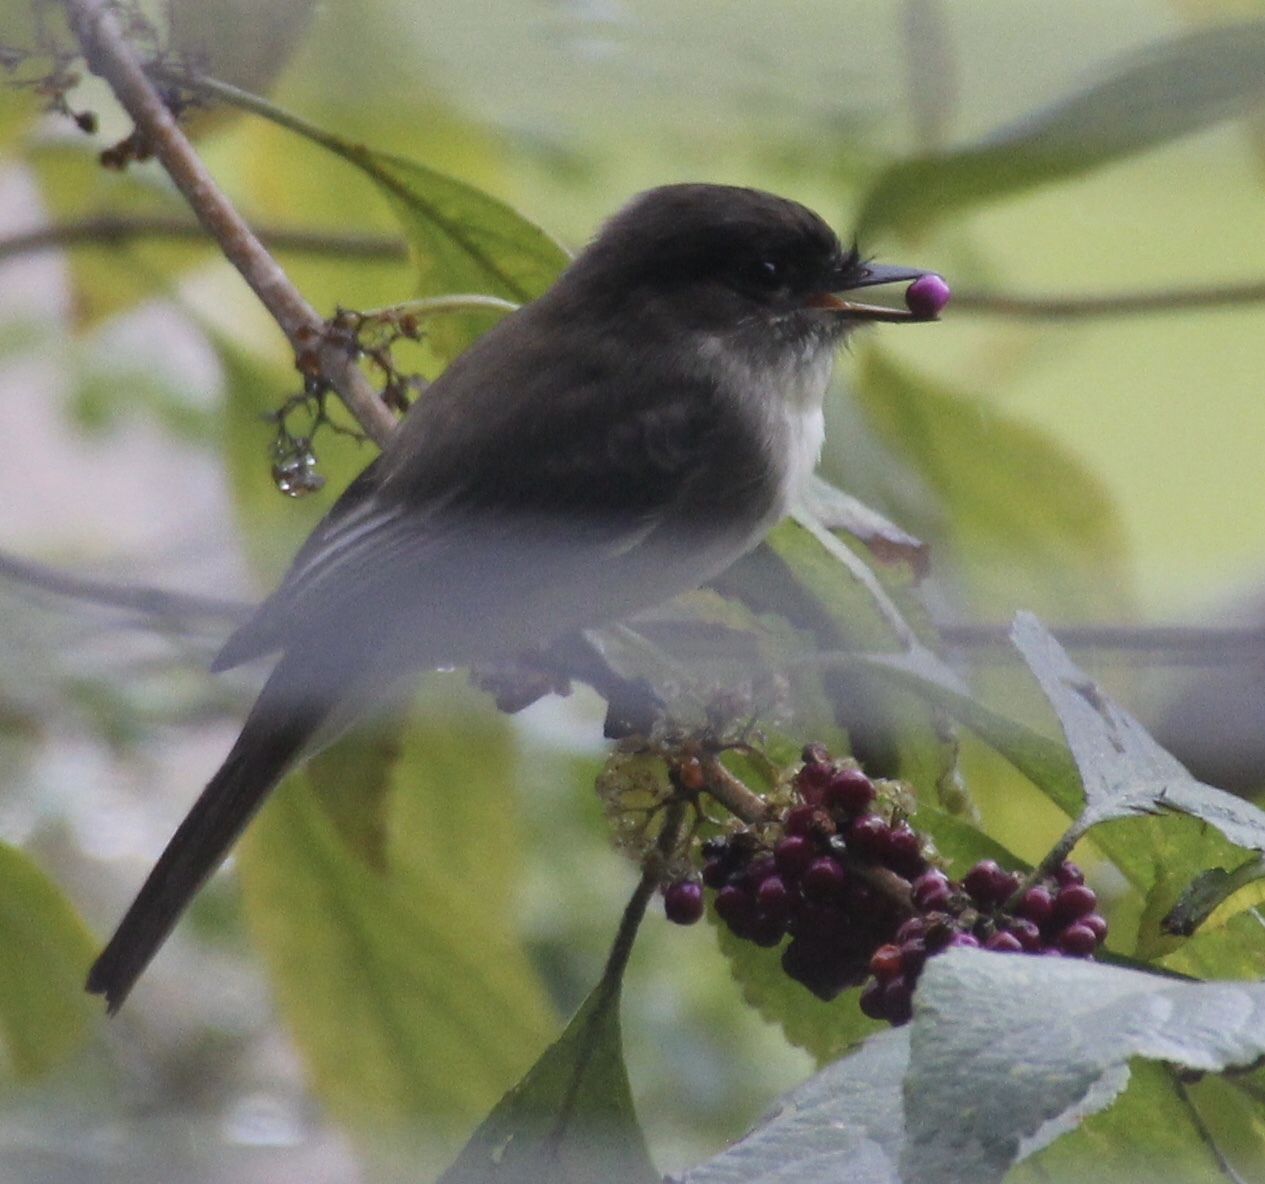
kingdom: Animalia
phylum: Chordata
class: Aves
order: Passeriformes
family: Tyrannidae
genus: Sayornis
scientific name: Sayornis phoebe
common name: Eastern phoebe
